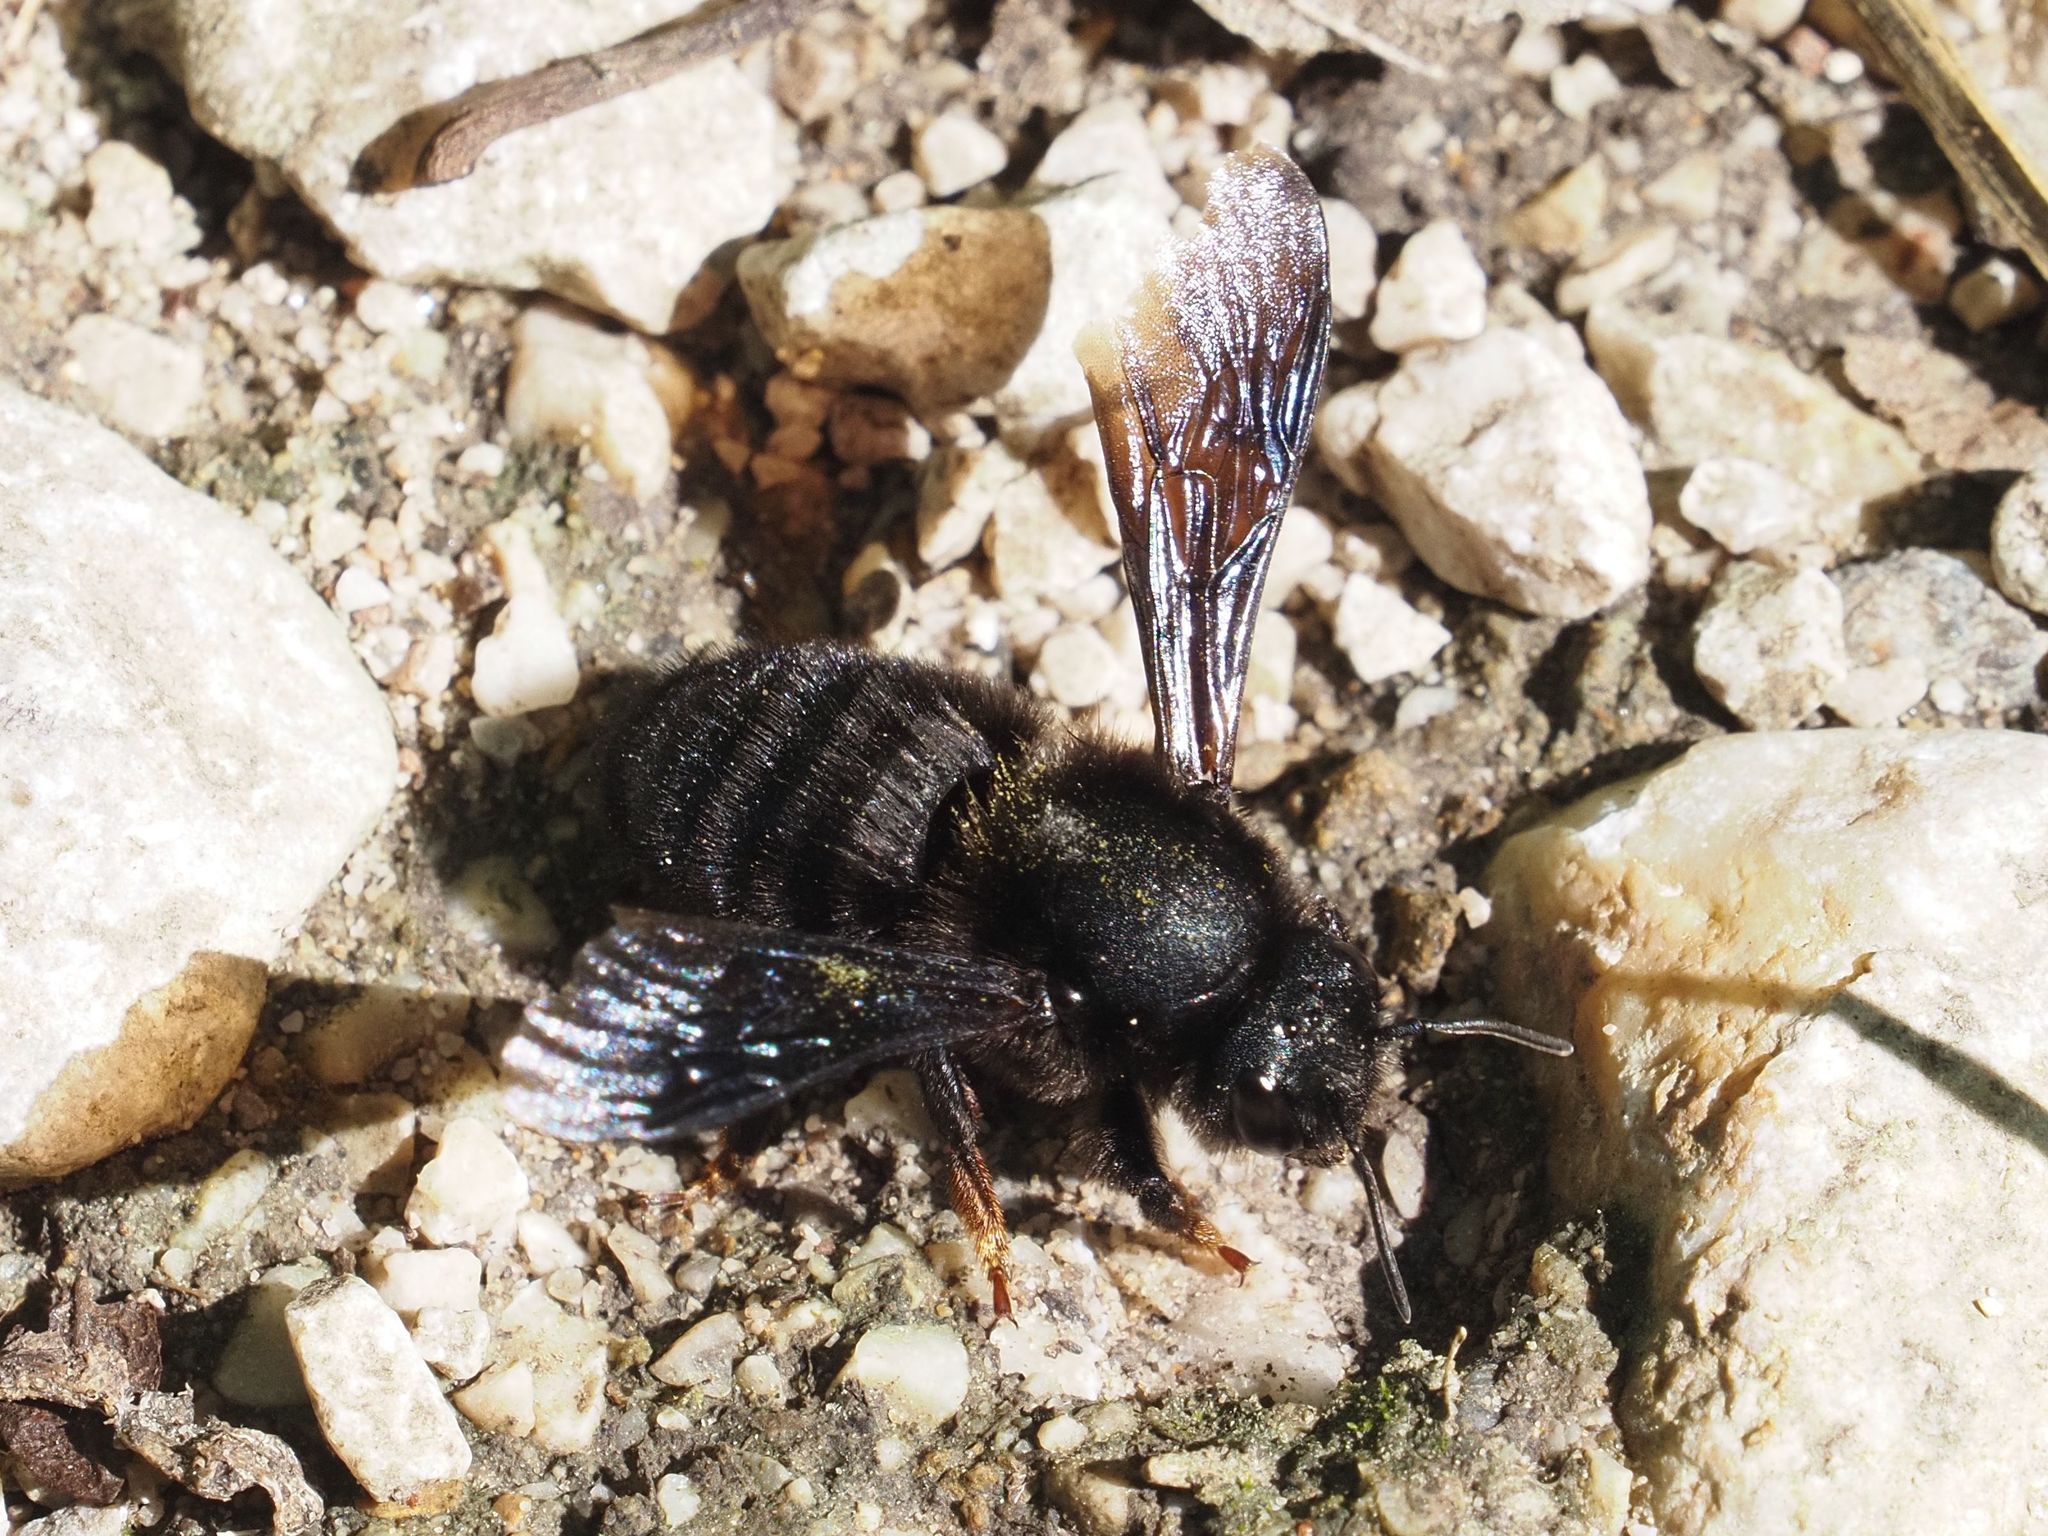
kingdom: Animalia
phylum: Arthropoda
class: Insecta
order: Hymenoptera
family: Megachilidae
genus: Megachile
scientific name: Megachile parietina
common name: Black mud bee
